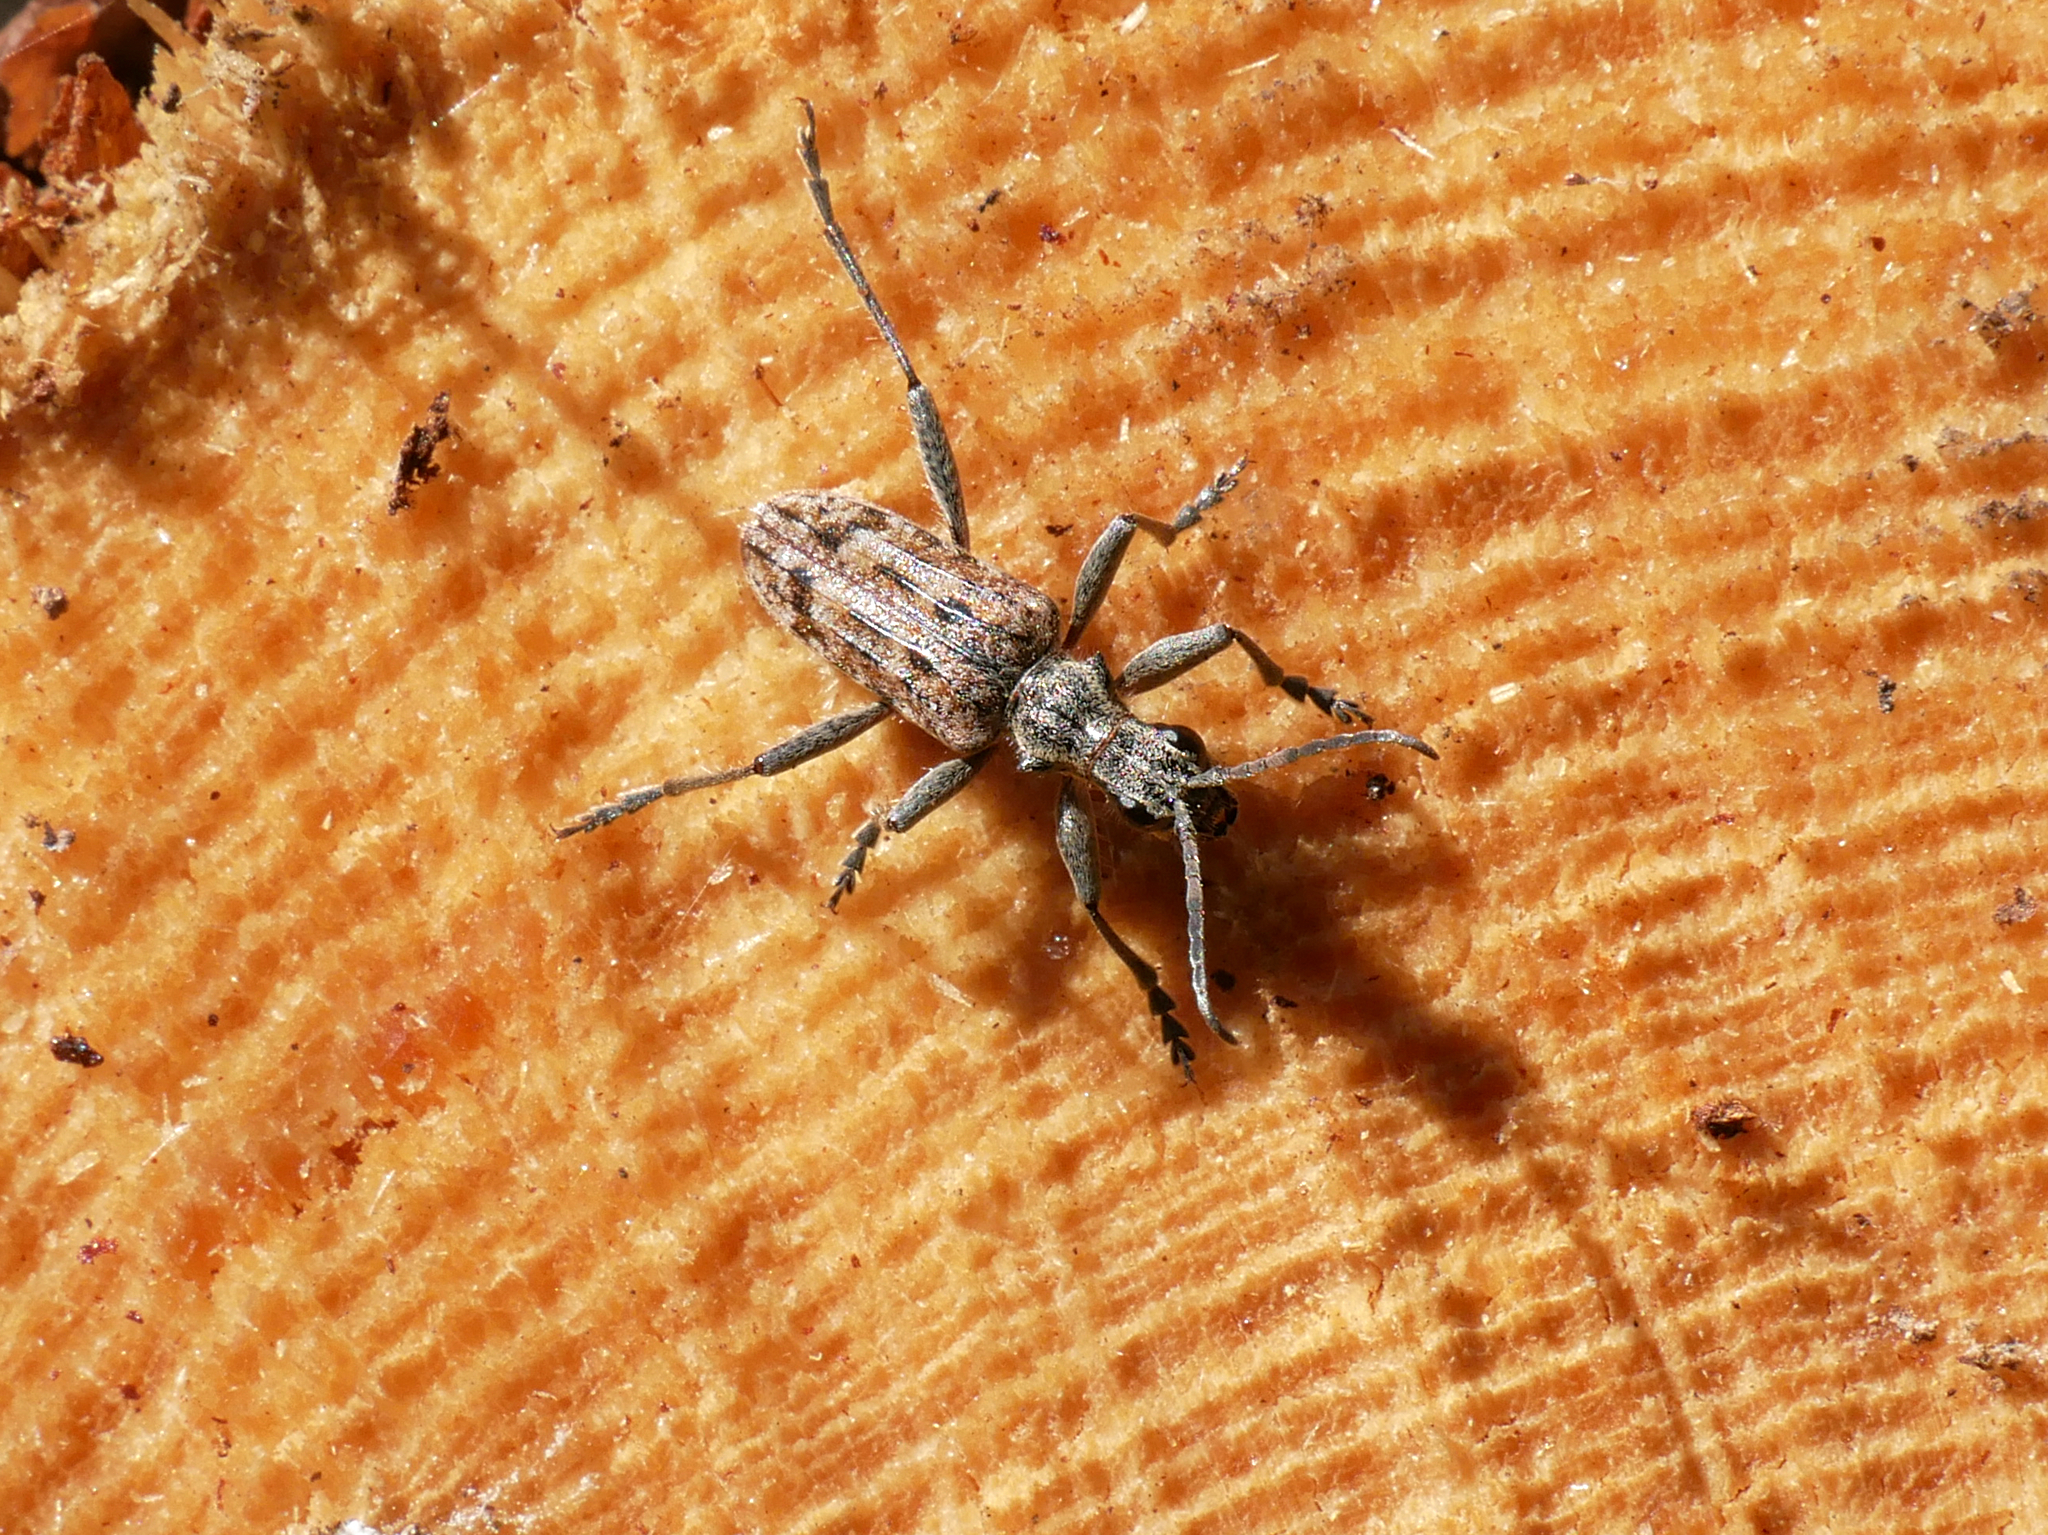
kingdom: Animalia
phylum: Arthropoda
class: Insecta
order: Coleoptera
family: Cerambycidae
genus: Rhagium
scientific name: Rhagium inquisitor
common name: Ribbed pine borer
